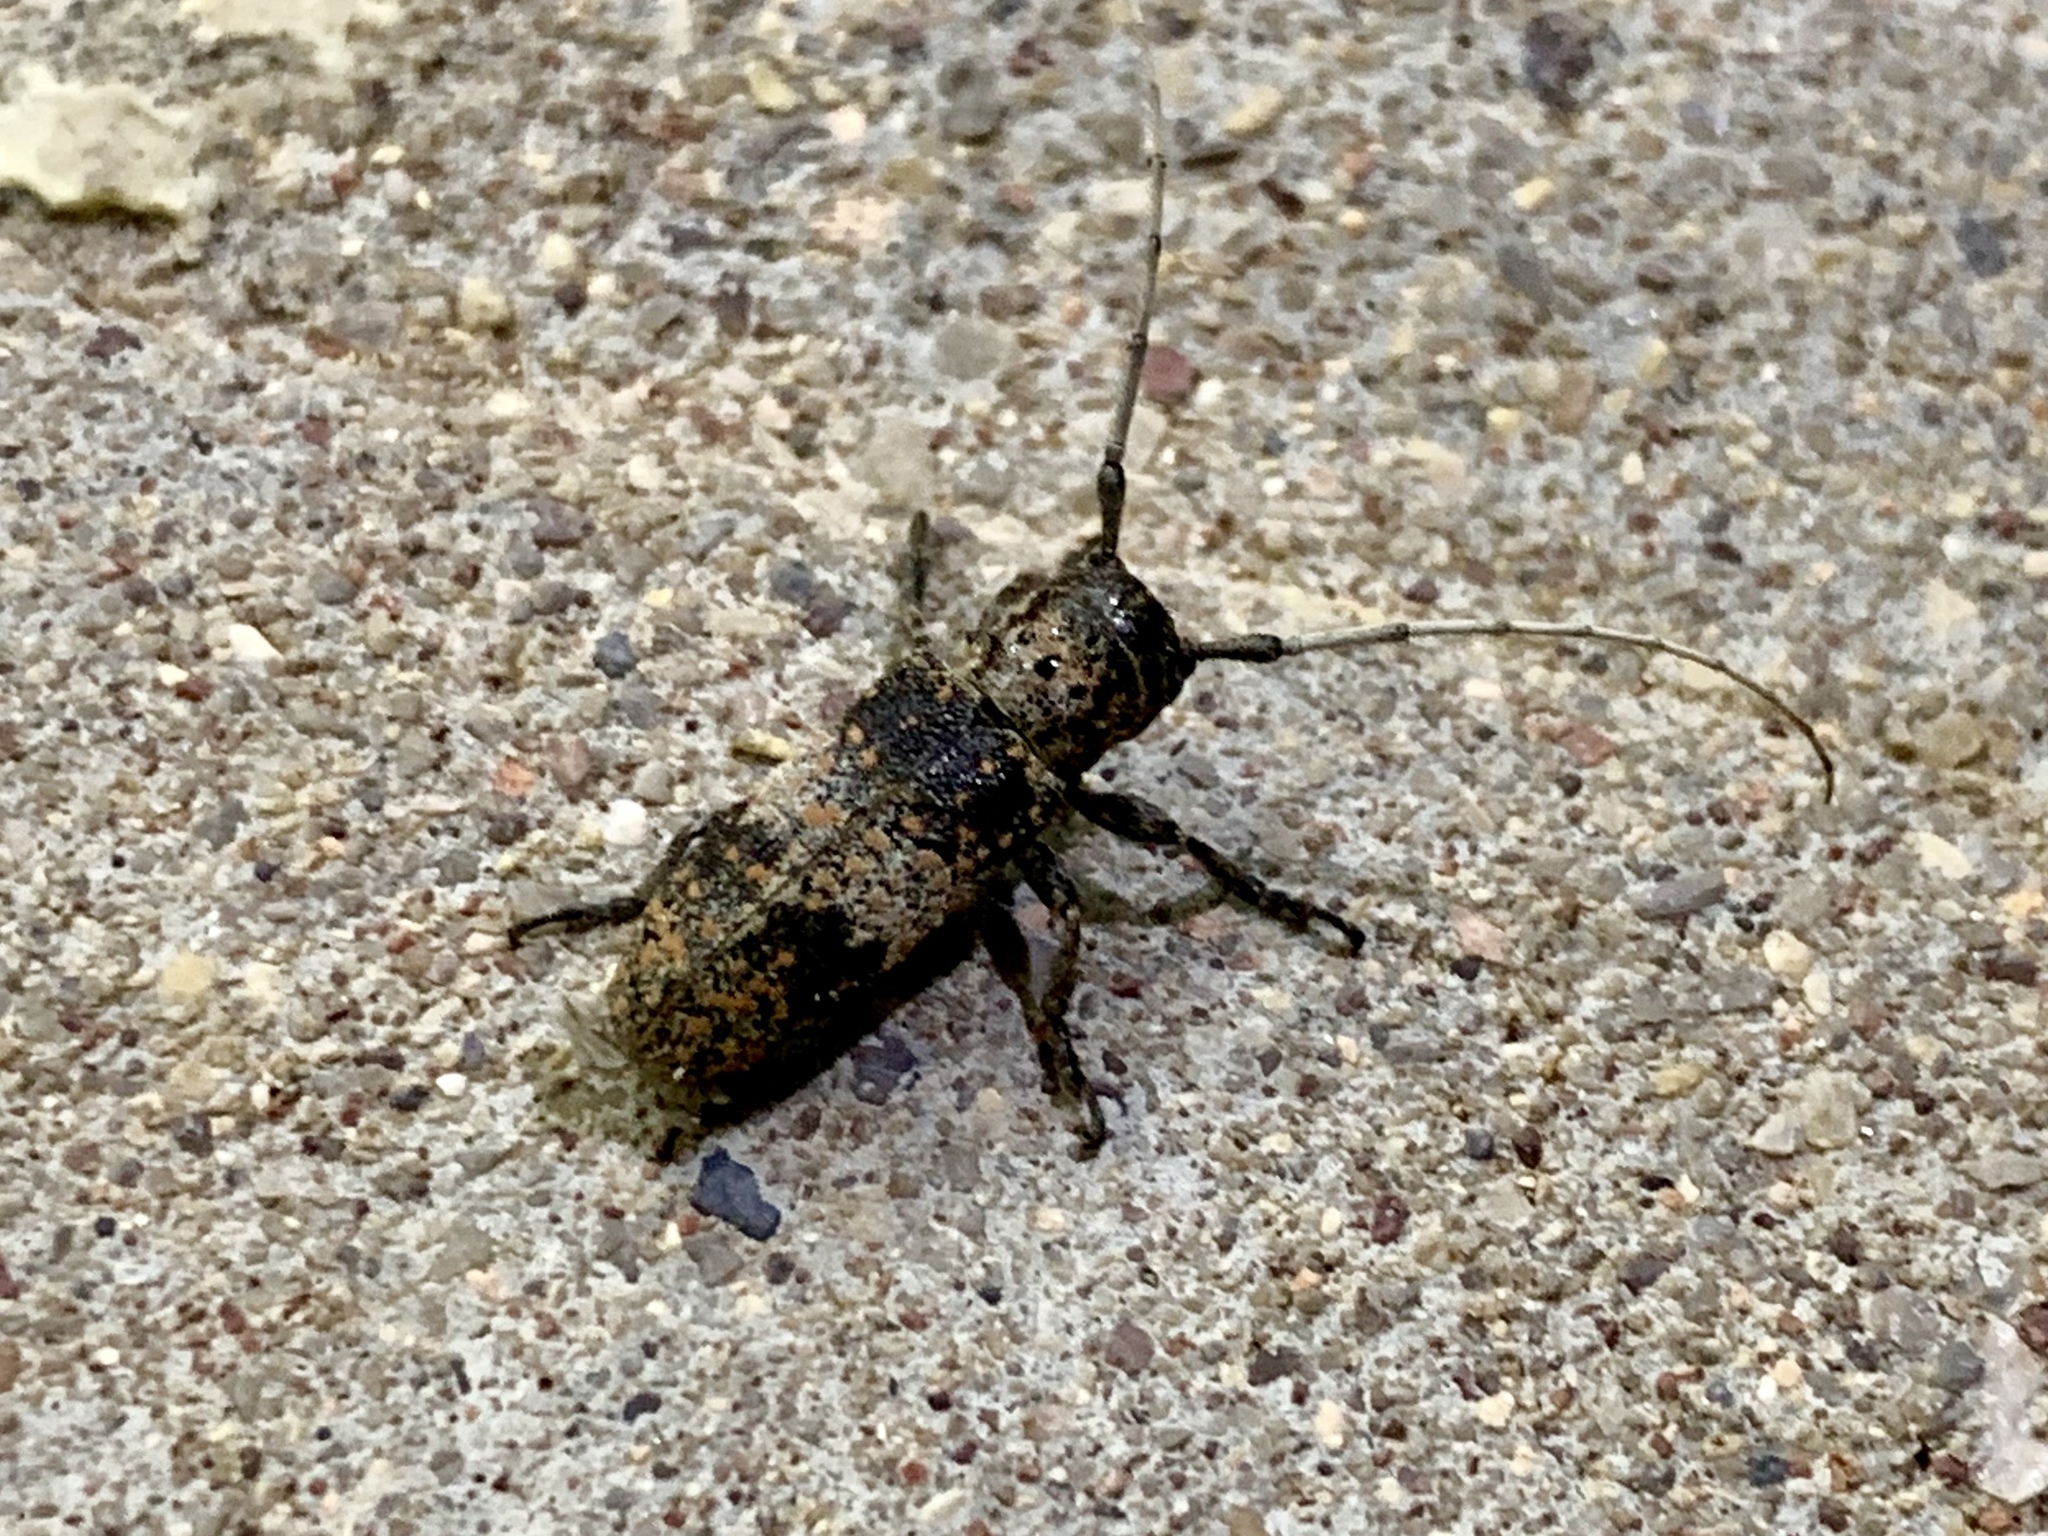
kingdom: Animalia
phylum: Arthropoda
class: Insecta
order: Coleoptera
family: Cerambycidae
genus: Oncideres
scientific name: Oncideres rhodosticta
